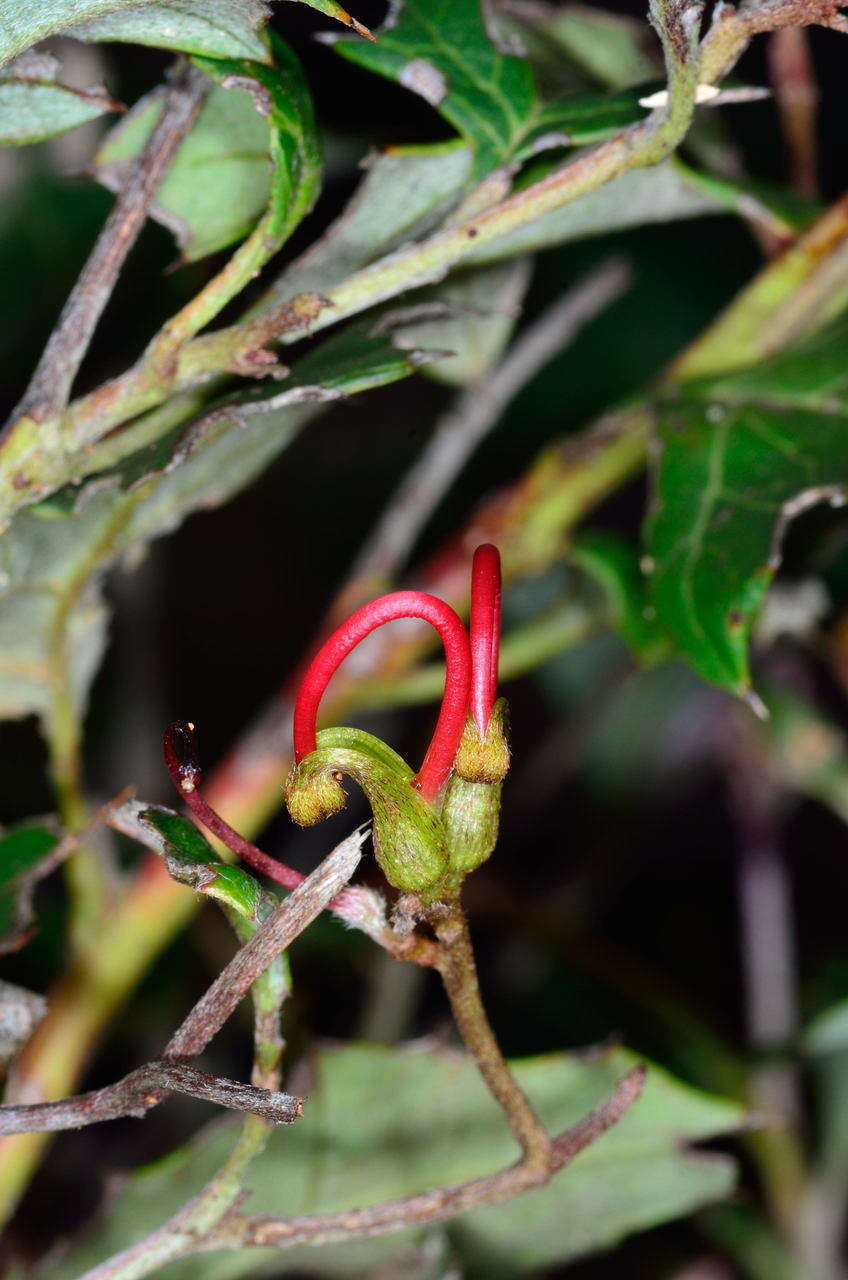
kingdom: Plantae
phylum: Tracheophyta
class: Magnoliopsida
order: Proteales
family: Proteaceae
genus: Grevillea
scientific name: Grevillea steiglitziana
